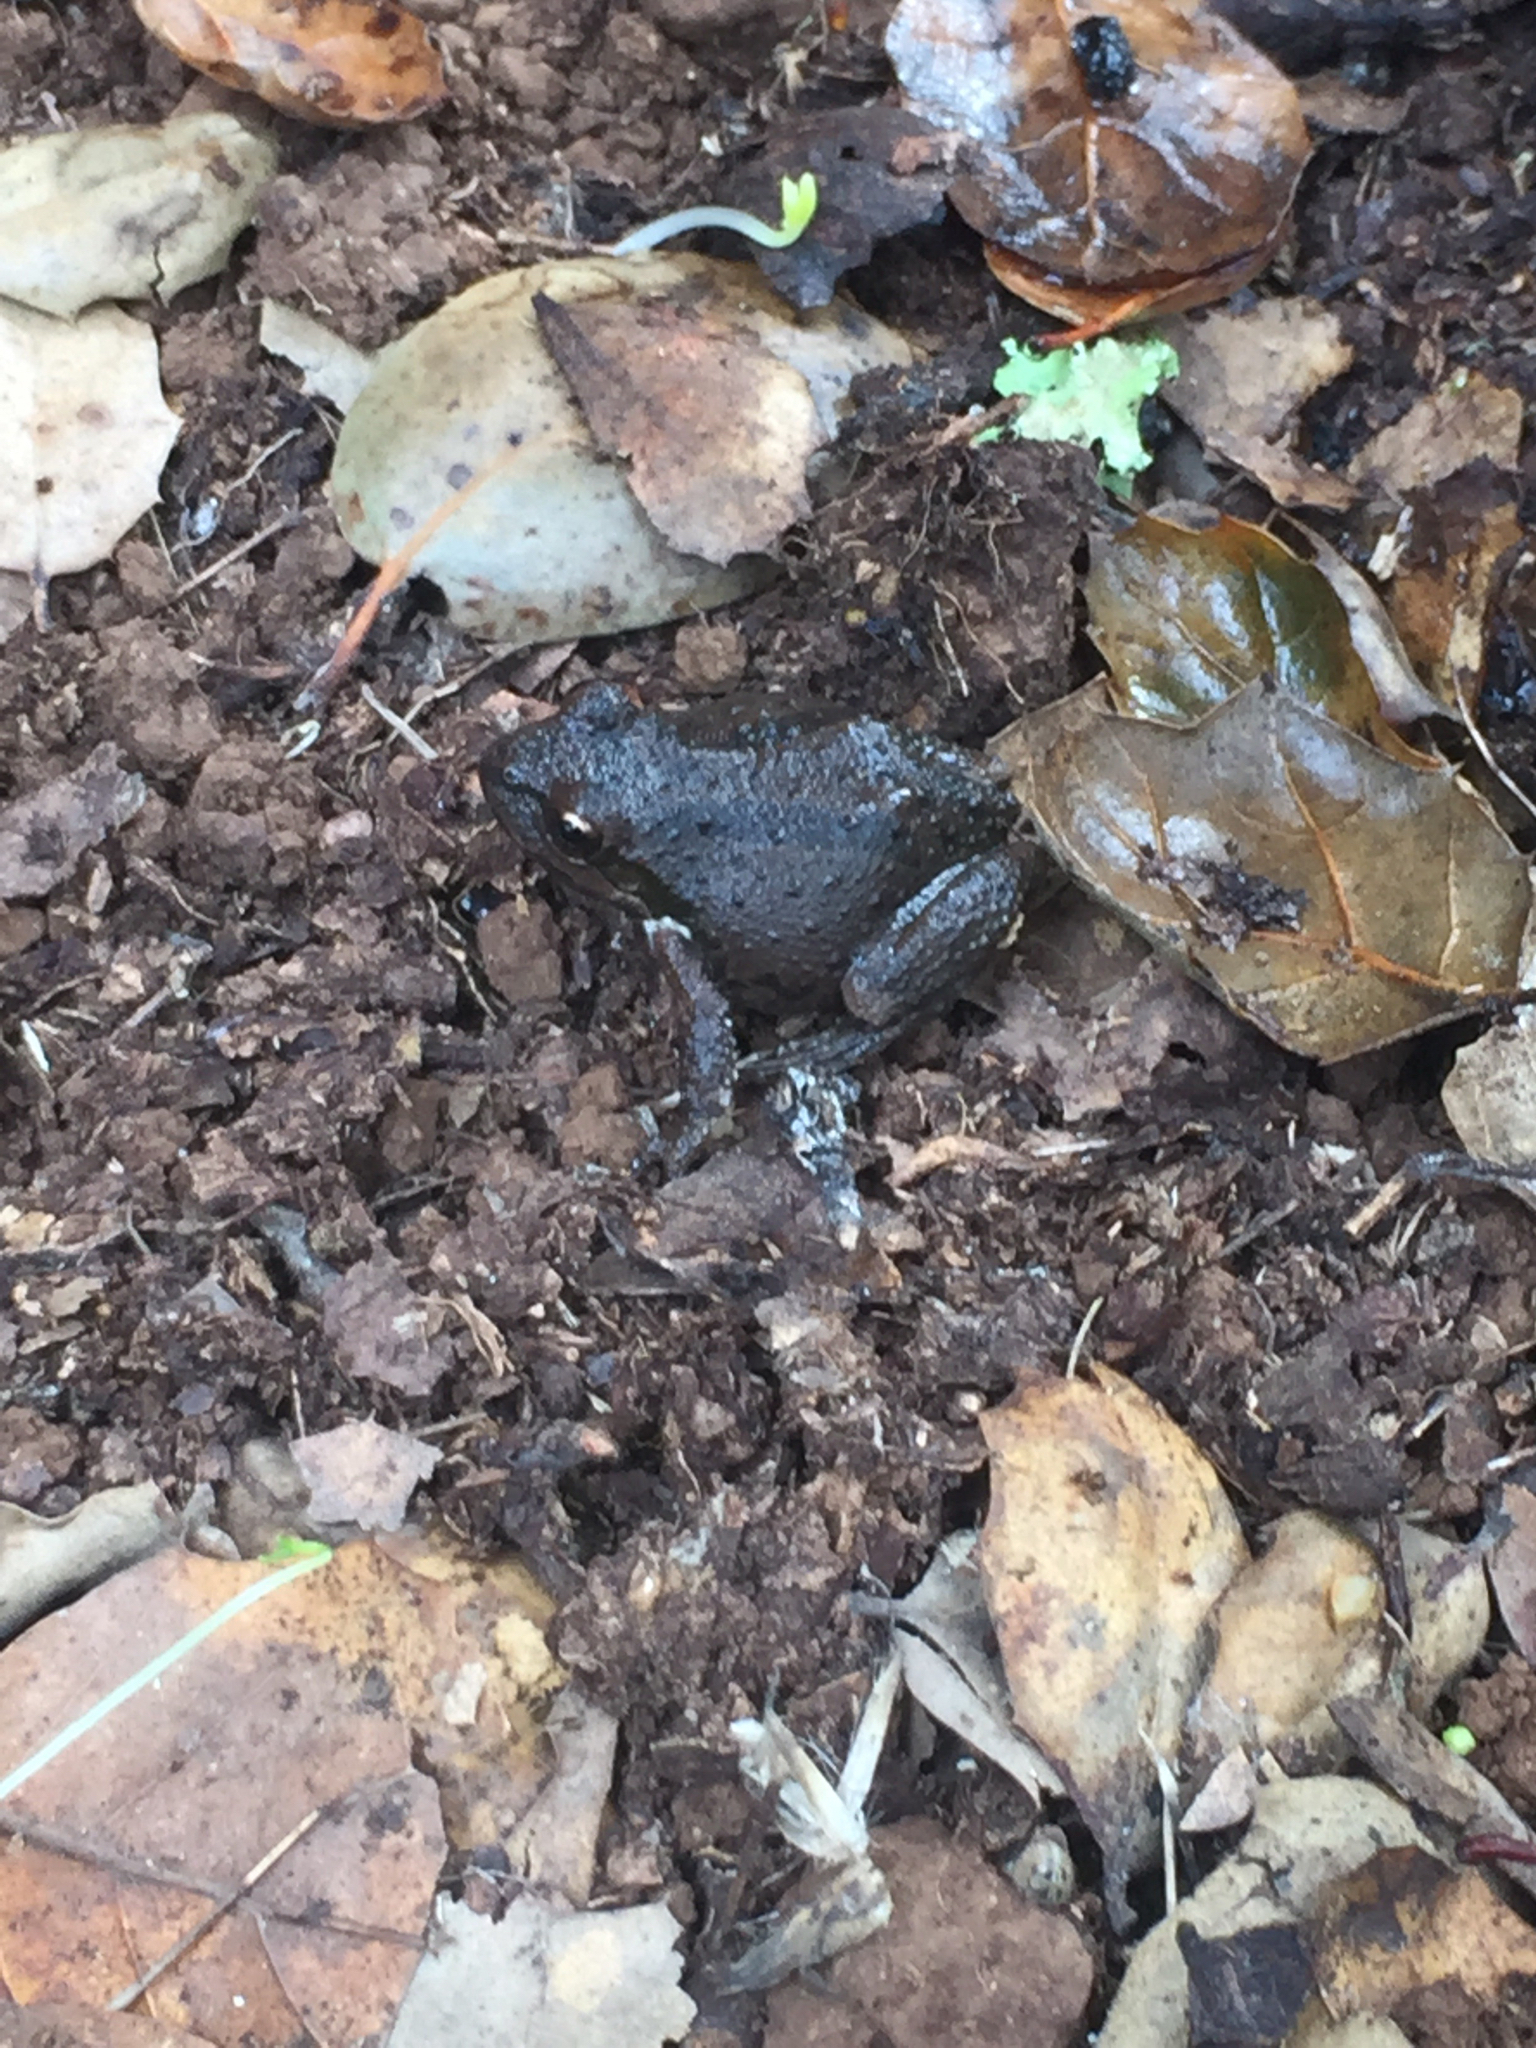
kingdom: Animalia
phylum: Chordata
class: Amphibia
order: Anura
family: Hylidae
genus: Pseudacris
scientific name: Pseudacris regilla
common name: Pacific chorus frog
